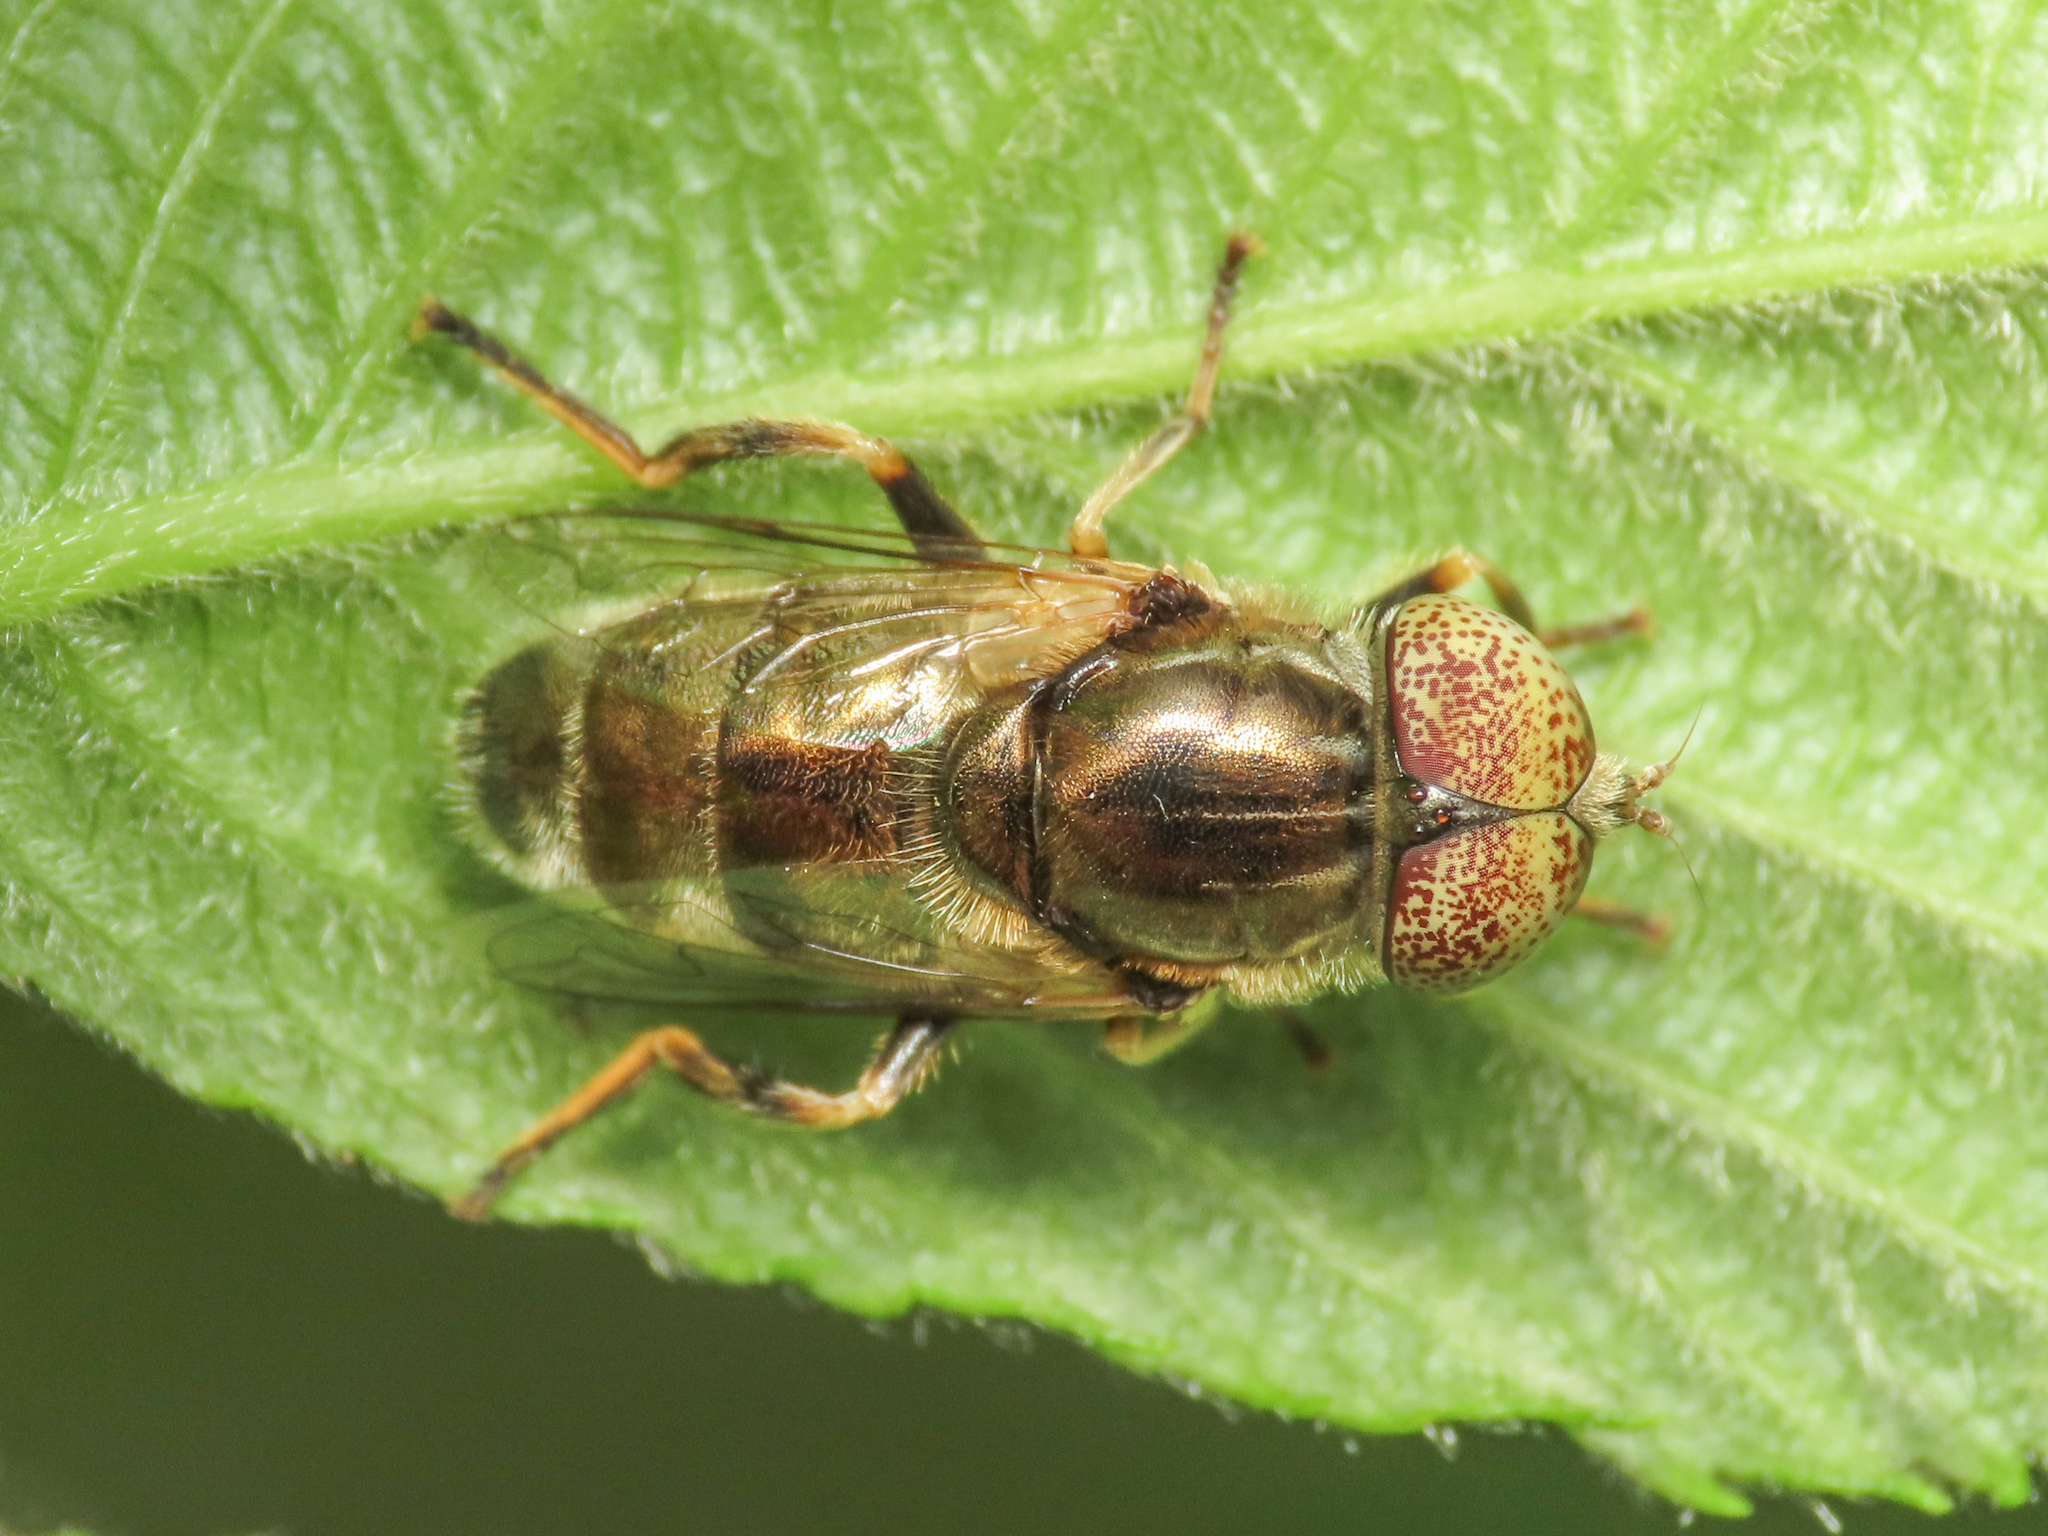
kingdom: Animalia
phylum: Arthropoda
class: Insecta
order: Diptera
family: Syrphidae
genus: Eristalinus
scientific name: Eristalinus aeneus
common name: Syrphid fly
